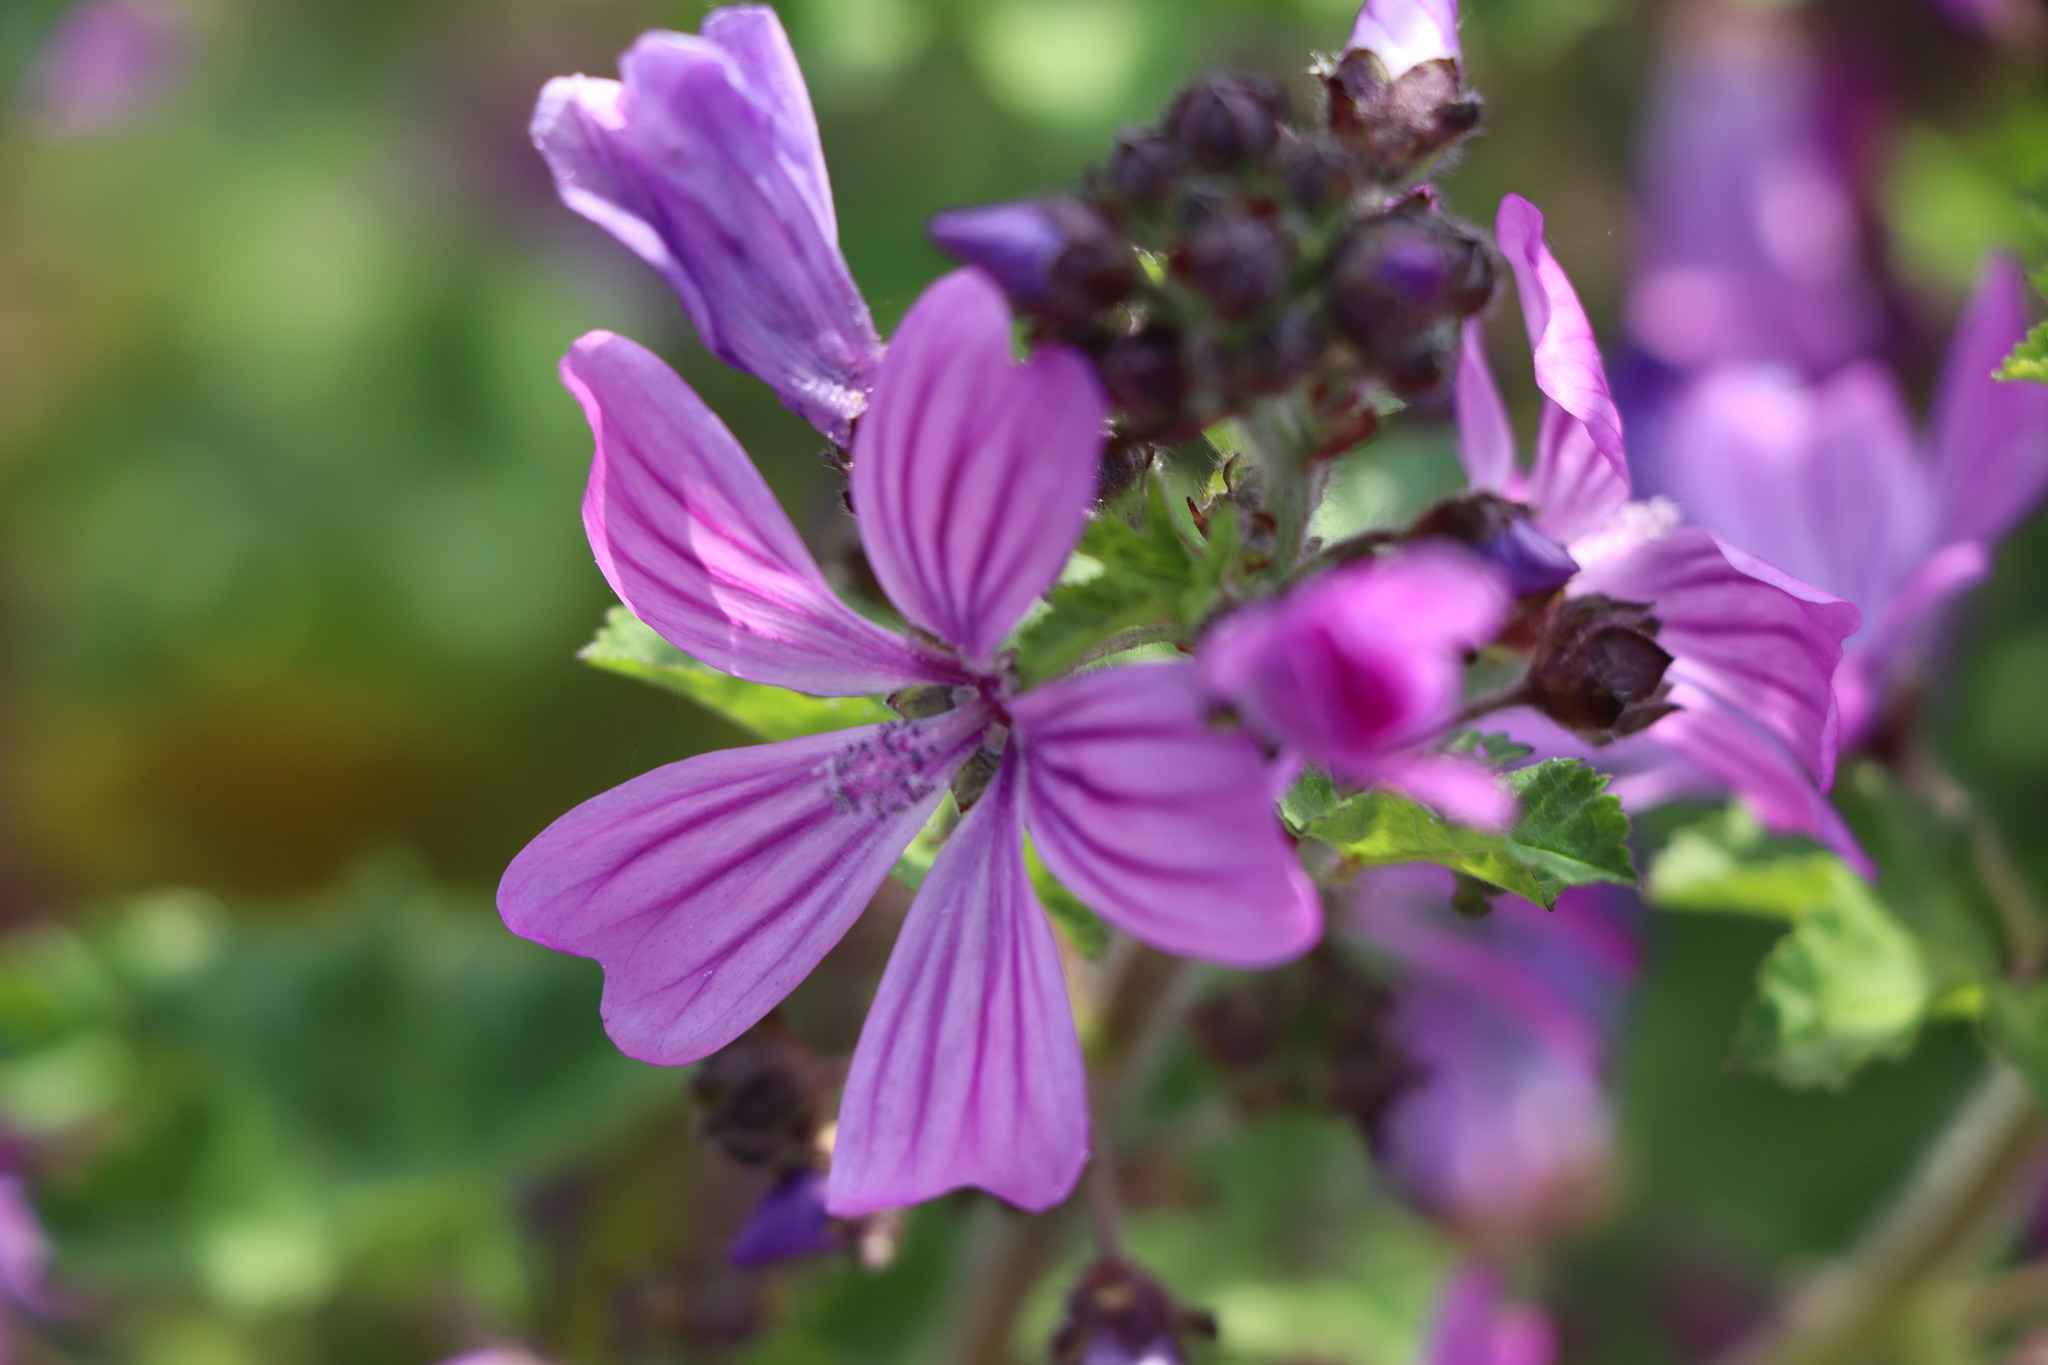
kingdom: Plantae
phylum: Tracheophyta
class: Magnoliopsida
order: Malvales
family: Malvaceae
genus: Malva
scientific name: Malva sylvestris
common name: Common mallow
